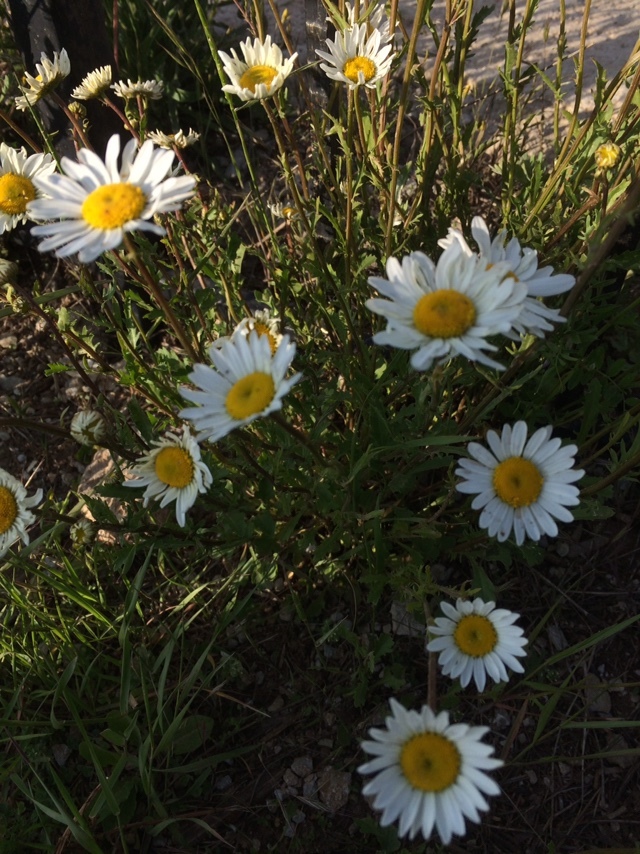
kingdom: Plantae
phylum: Tracheophyta
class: Magnoliopsida
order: Asterales
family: Asteraceae
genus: Leucanthemum
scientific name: Leucanthemum vulgare
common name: Oxeye daisy
